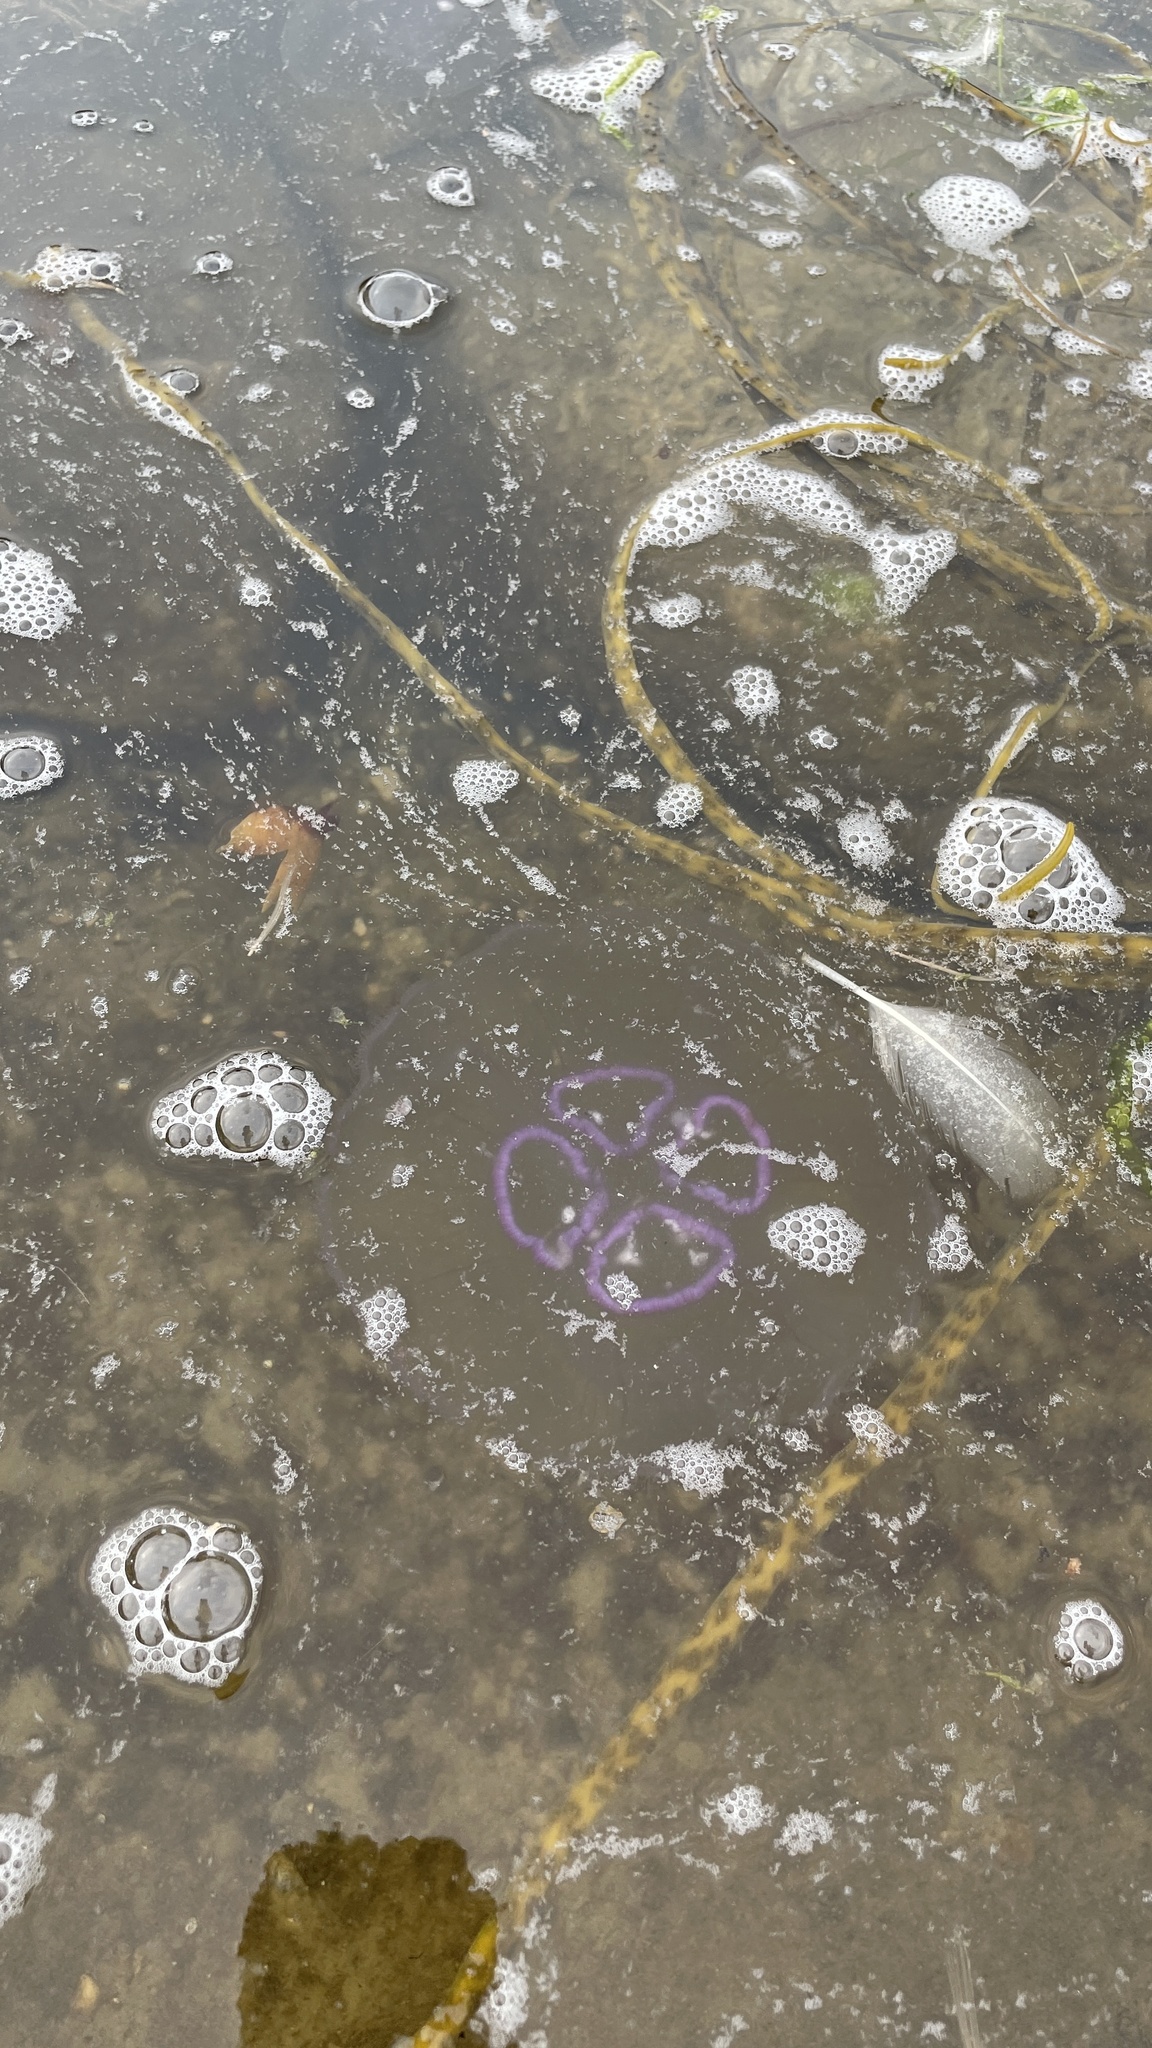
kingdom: Animalia
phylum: Cnidaria
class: Scyphozoa
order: Semaeostomeae
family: Ulmaridae
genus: Aurelia
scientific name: Aurelia aurita
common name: Moon jellyfish
